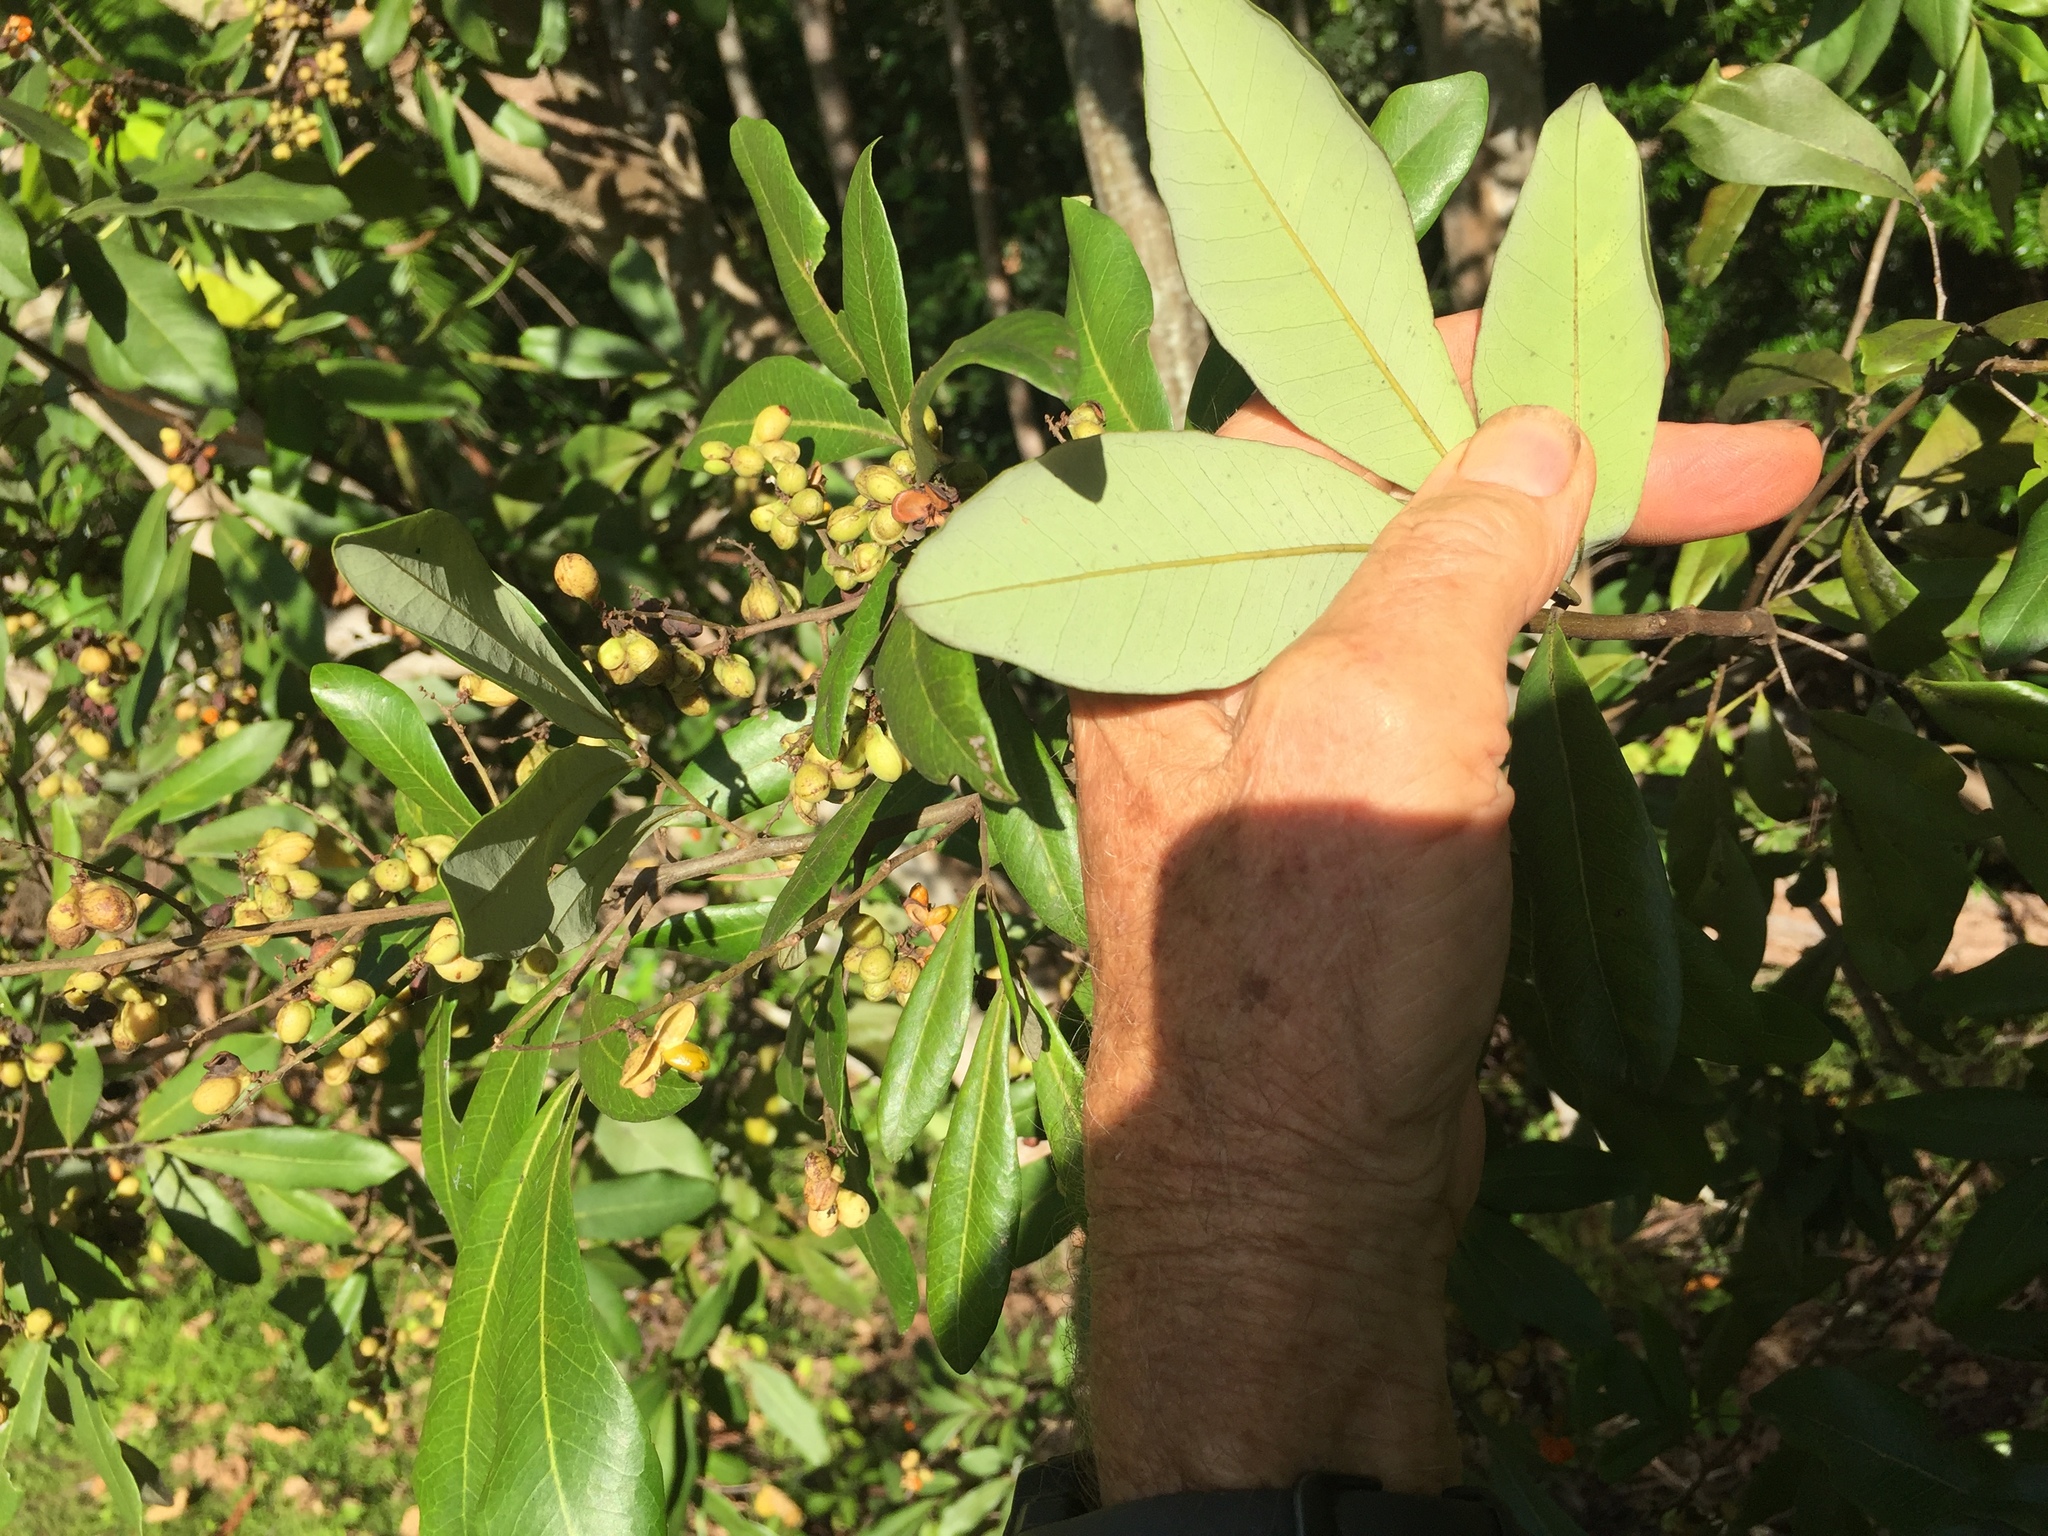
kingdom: Plantae
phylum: Tracheophyta
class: Magnoliopsida
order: Sapindales
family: Sapindaceae
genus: Guioa
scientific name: Guioa semiglauca
